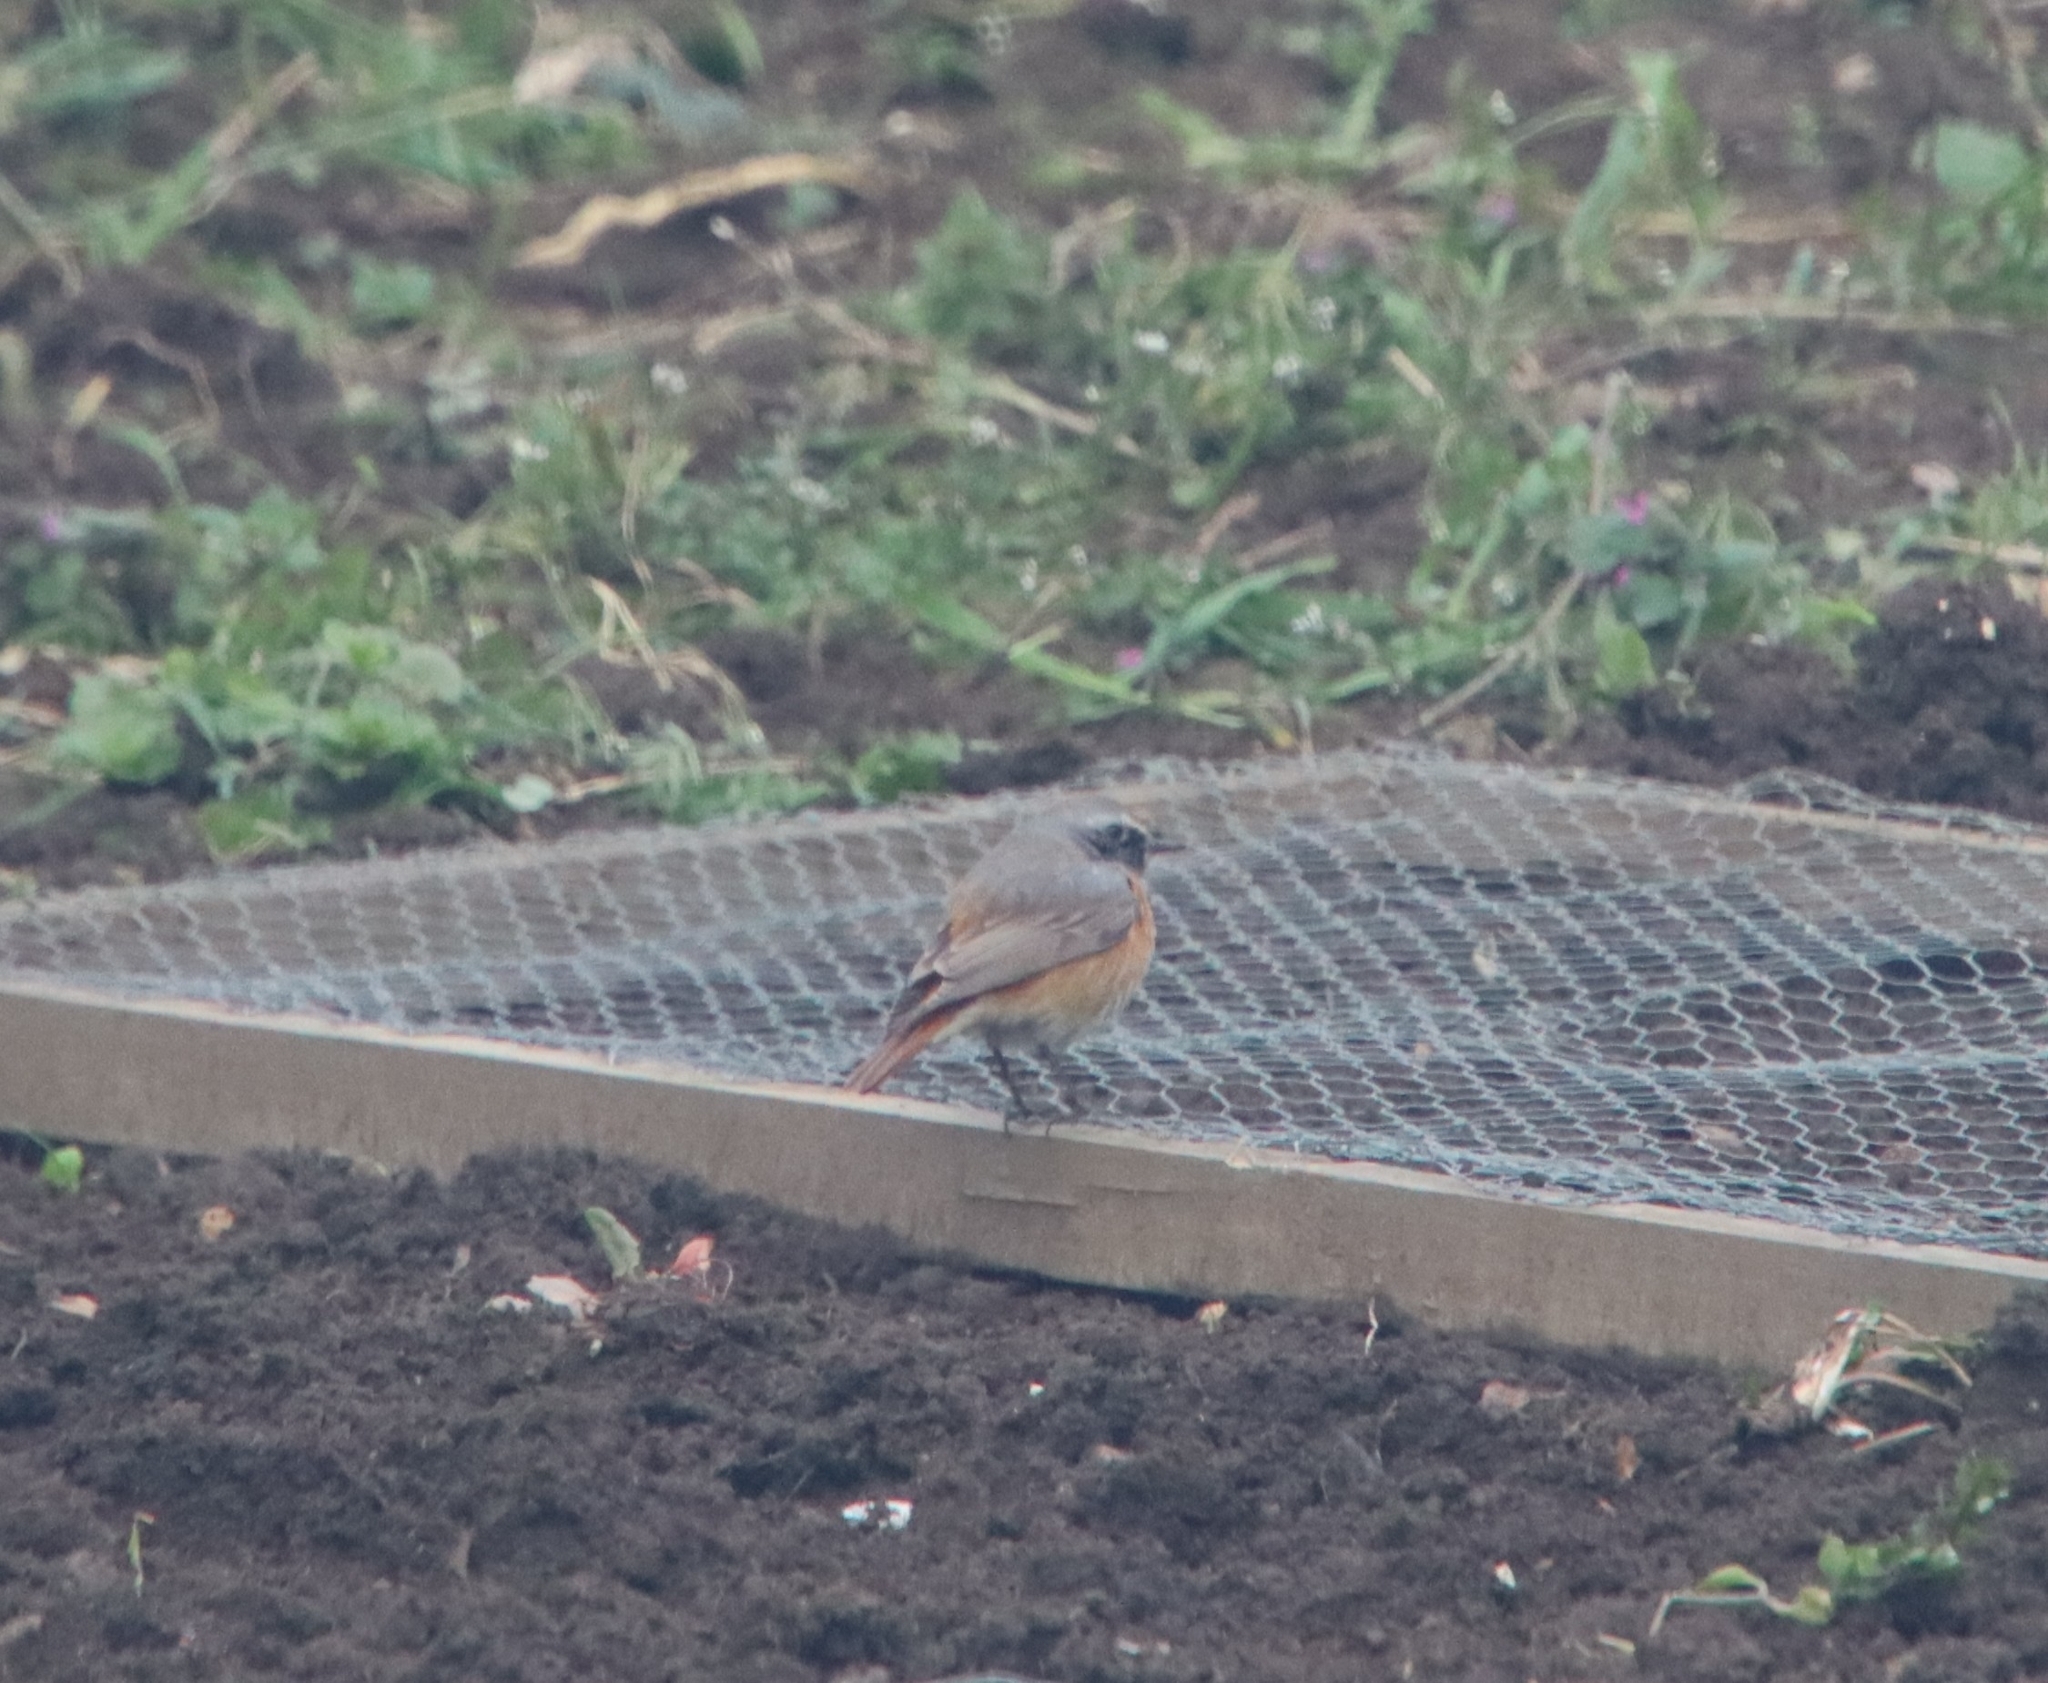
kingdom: Animalia
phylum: Chordata
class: Aves
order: Passeriformes
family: Muscicapidae
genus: Phoenicurus
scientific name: Phoenicurus phoenicurus
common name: Common redstart
